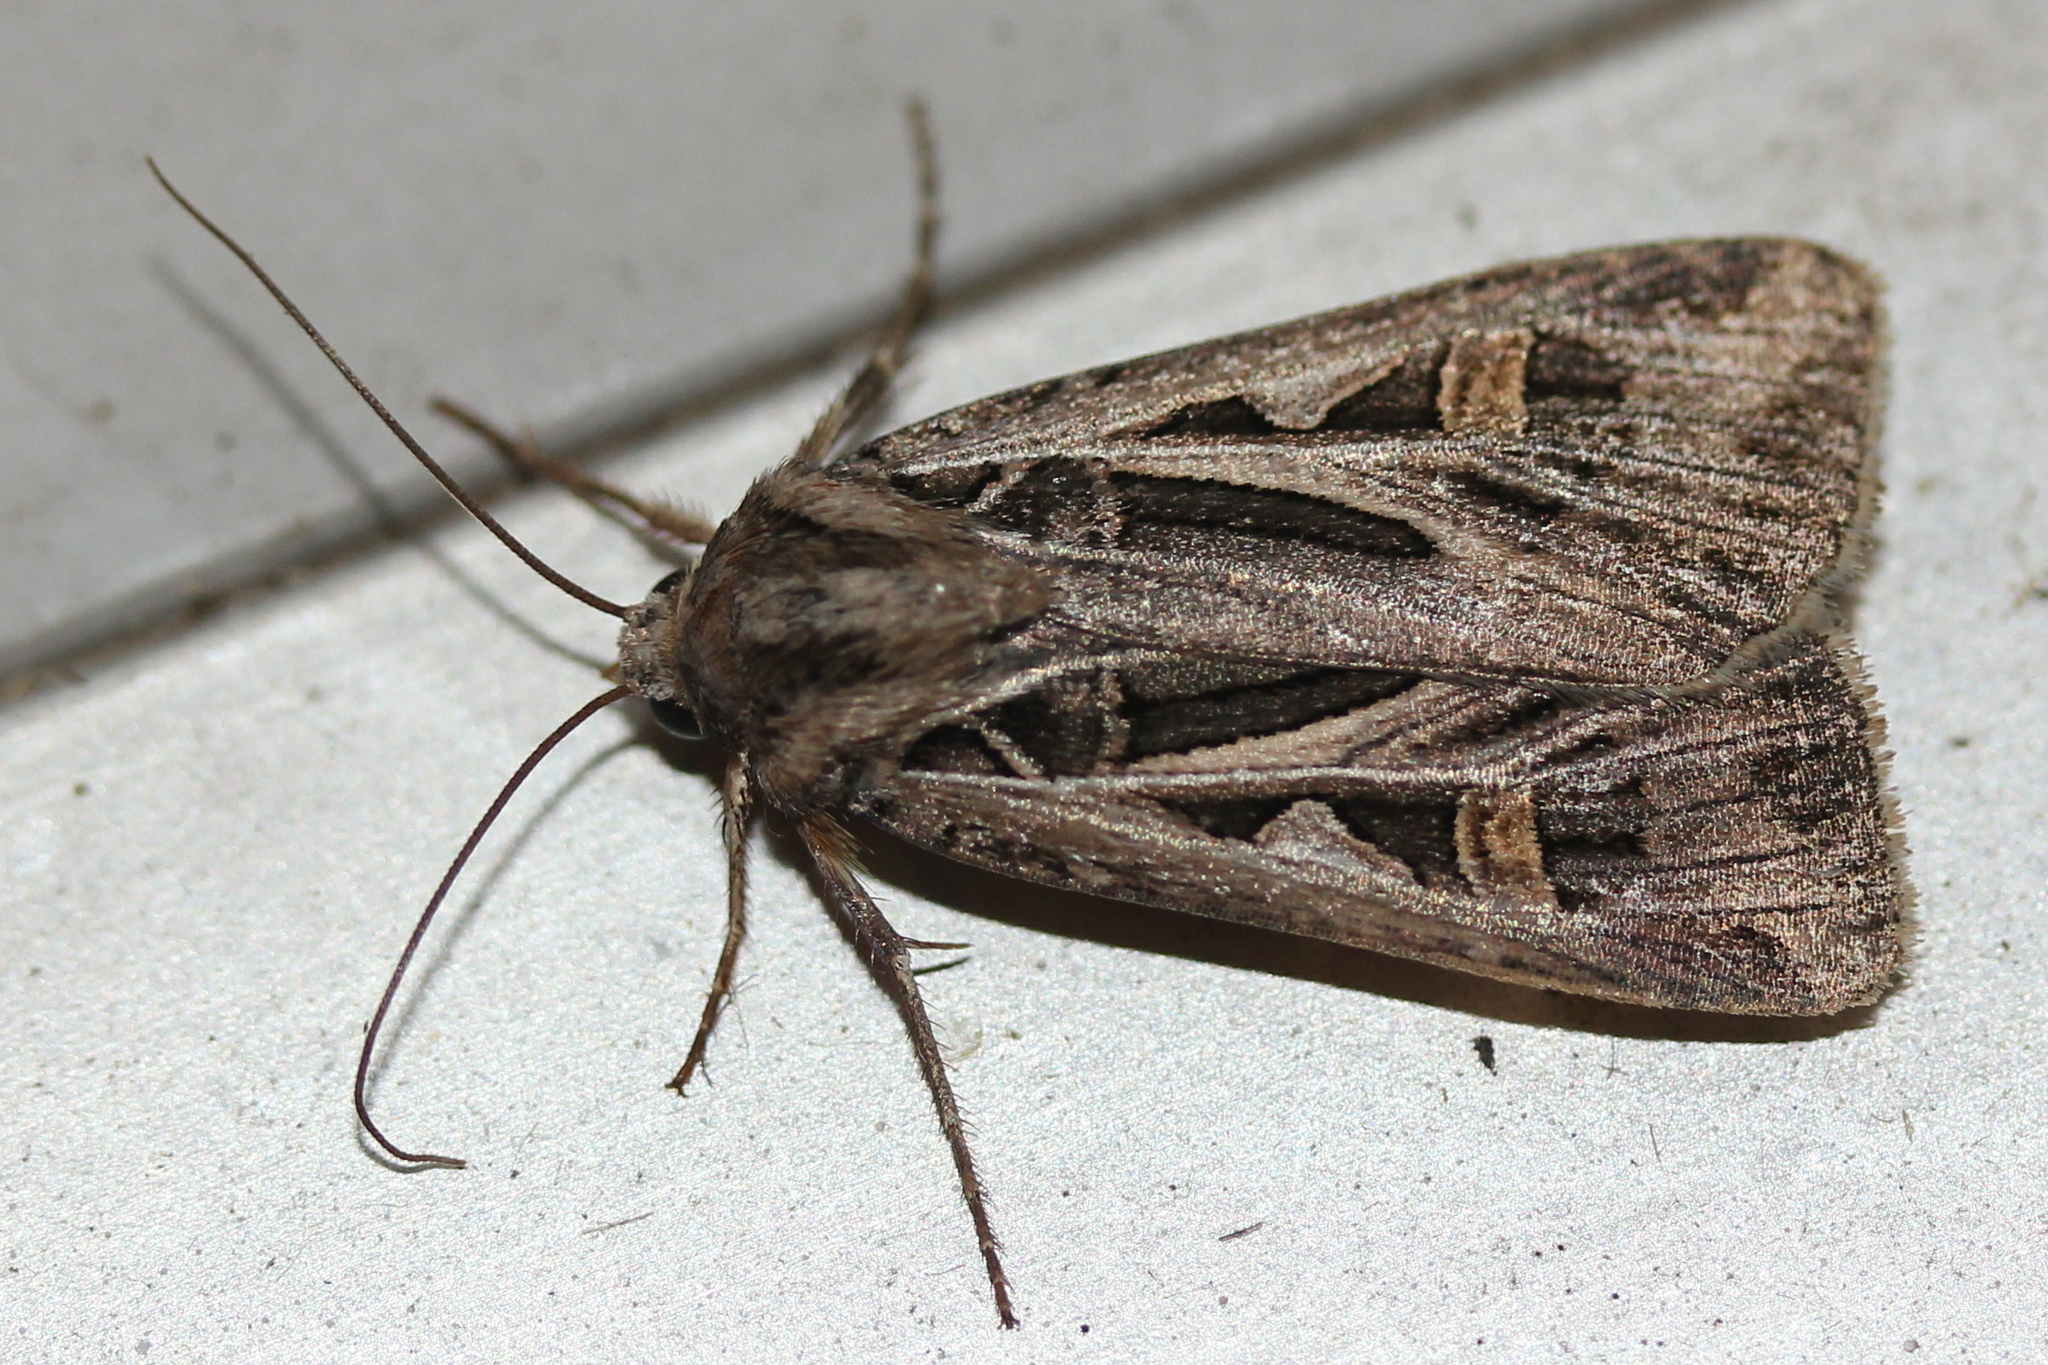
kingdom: Animalia
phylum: Arthropoda
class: Insecta
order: Lepidoptera
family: Noctuidae
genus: Feltia
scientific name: Feltia jaculifera
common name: Dingy cutworm moth
